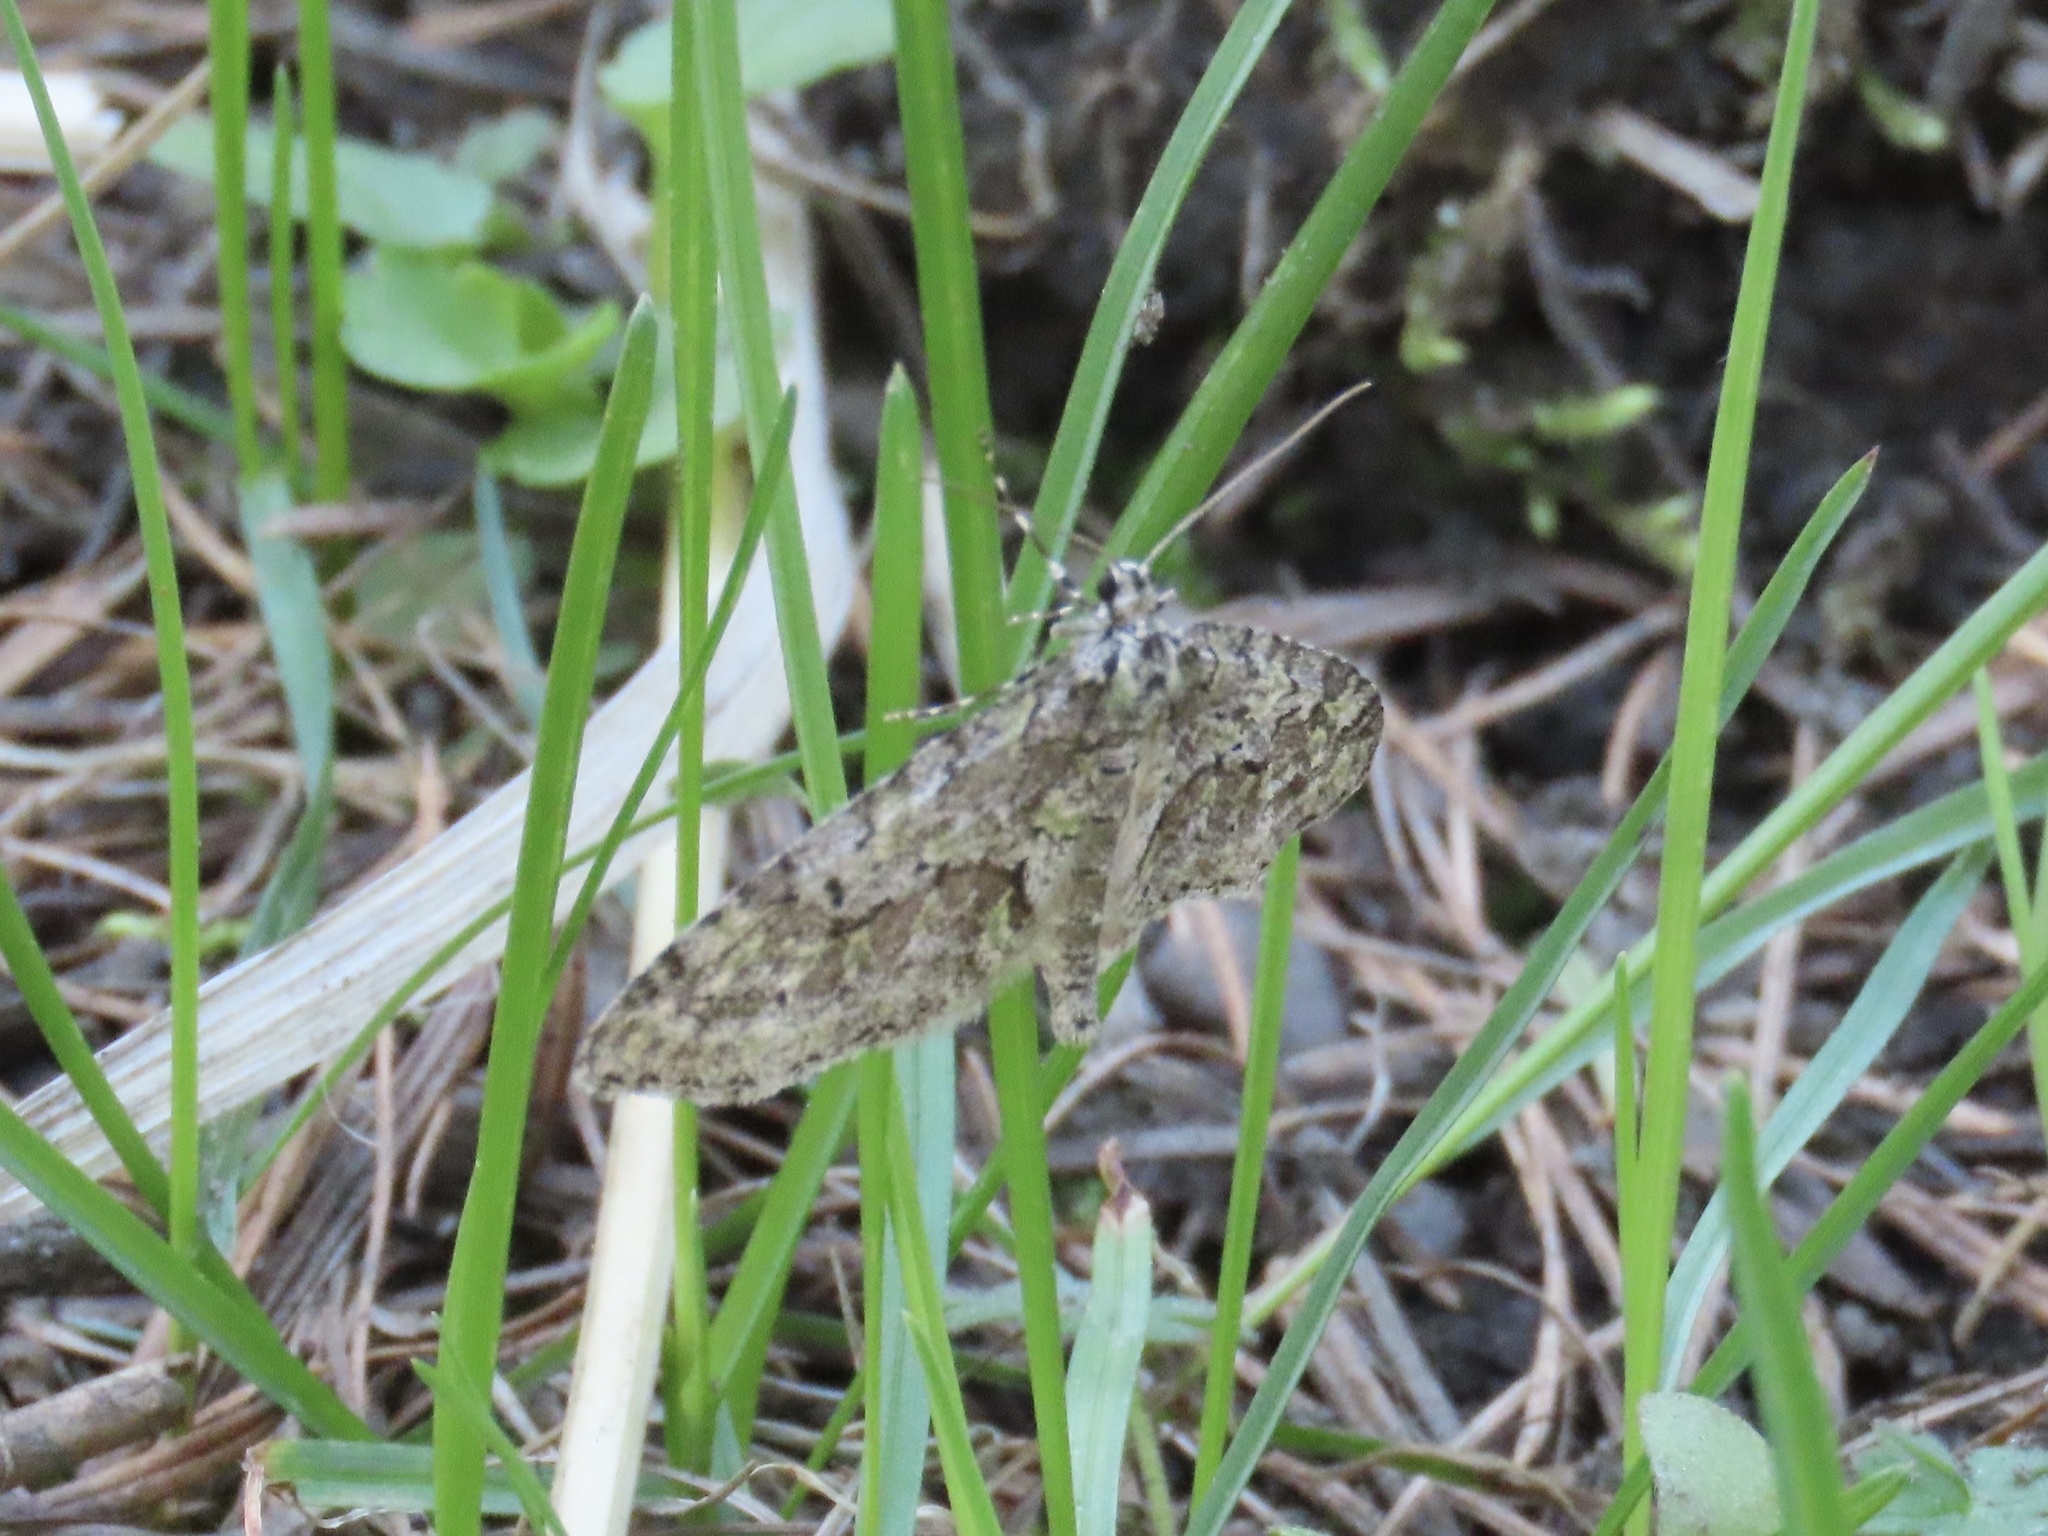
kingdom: Animalia
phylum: Arthropoda
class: Insecta
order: Lepidoptera
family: Geometridae
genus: Cladara
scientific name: Cladara limitaria
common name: Mottled gray carpet
